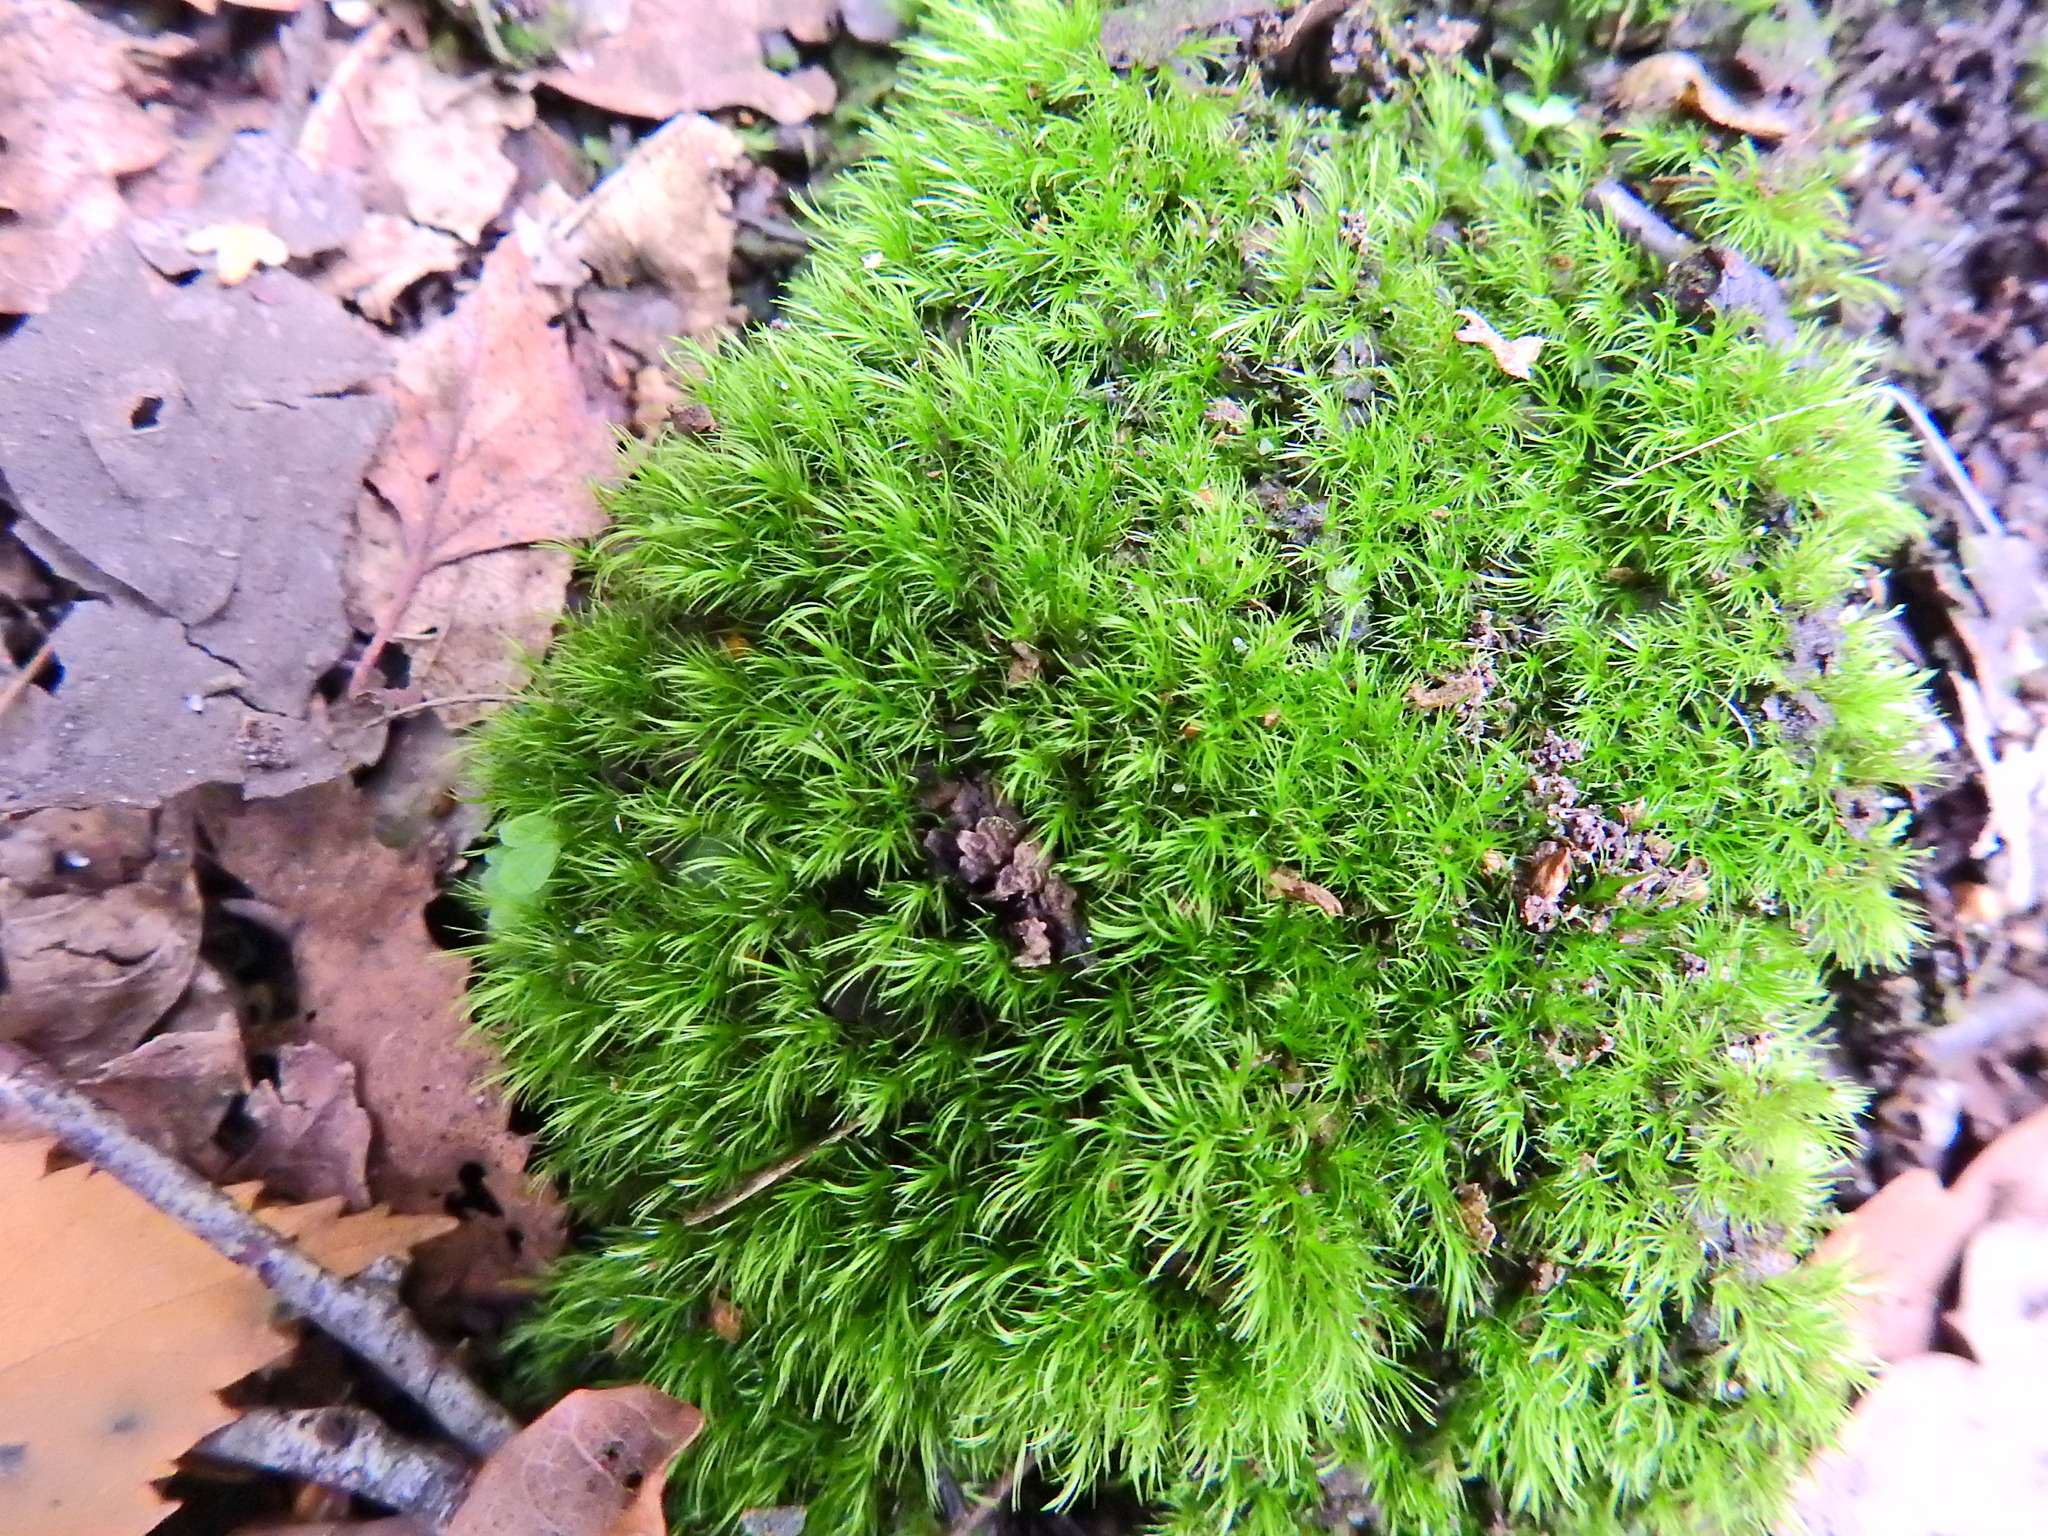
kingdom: Plantae
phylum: Bryophyta
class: Bryopsida
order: Dicranales
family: Dicranellaceae
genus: Dicranella
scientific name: Dicranella heteromalla
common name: Silky forklet moss
